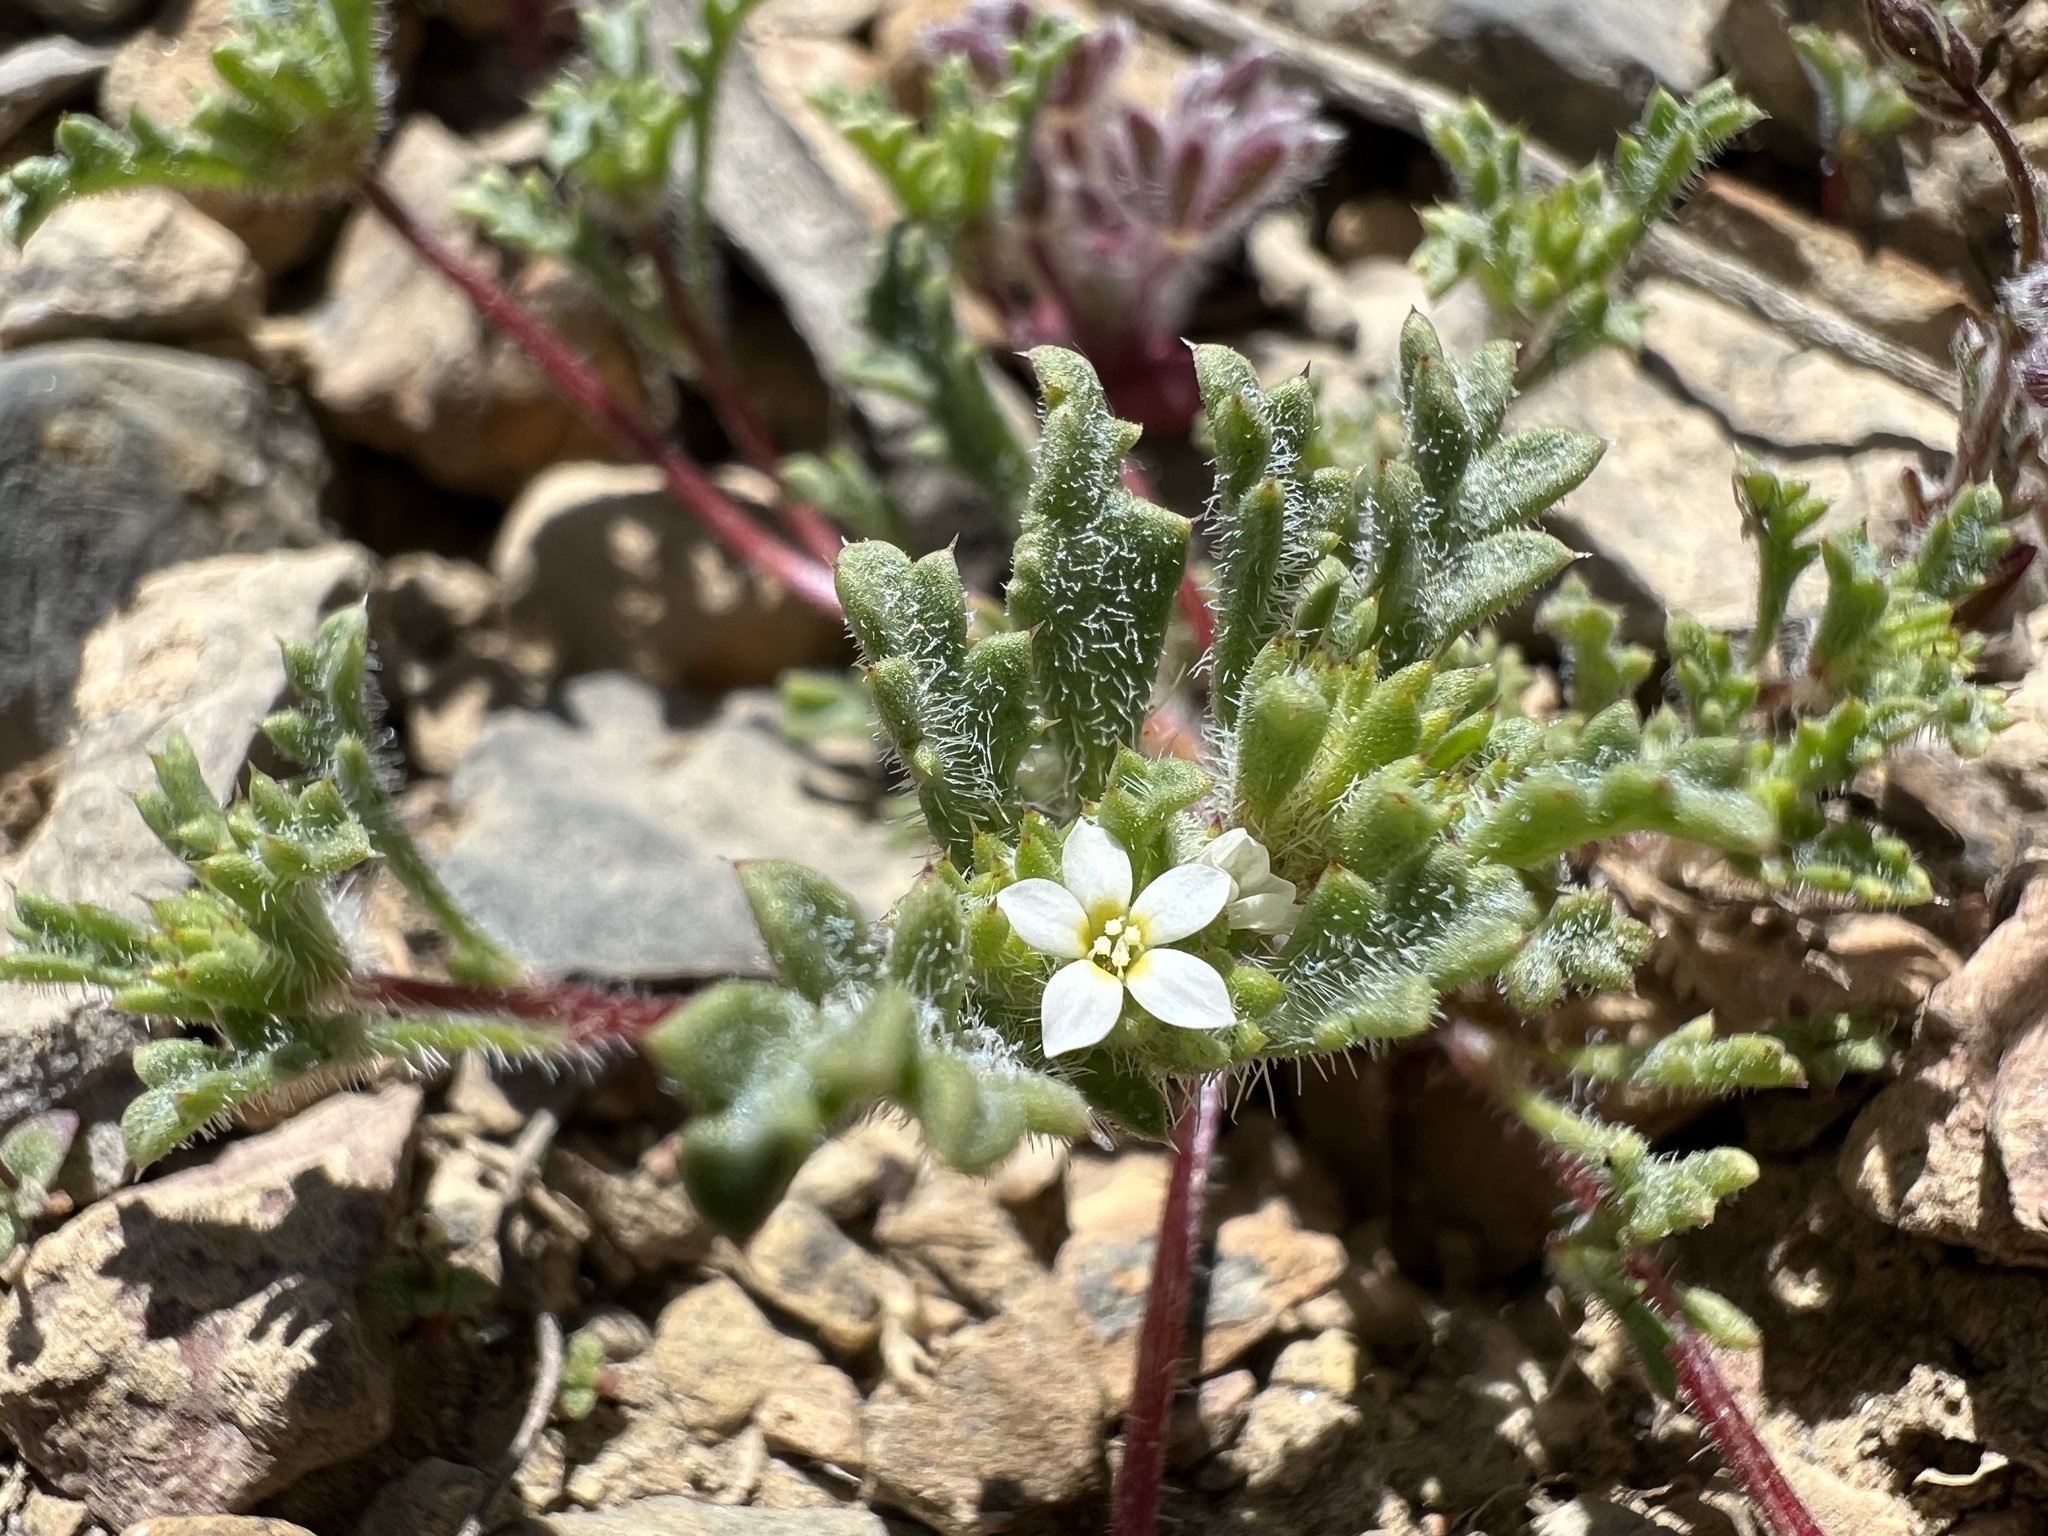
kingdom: Plantae
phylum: Tracheophyta
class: Magnoliopsida
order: Ericales
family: Polemoniaceae
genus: Ipomopsis
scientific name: Ipomopsis polycladon
